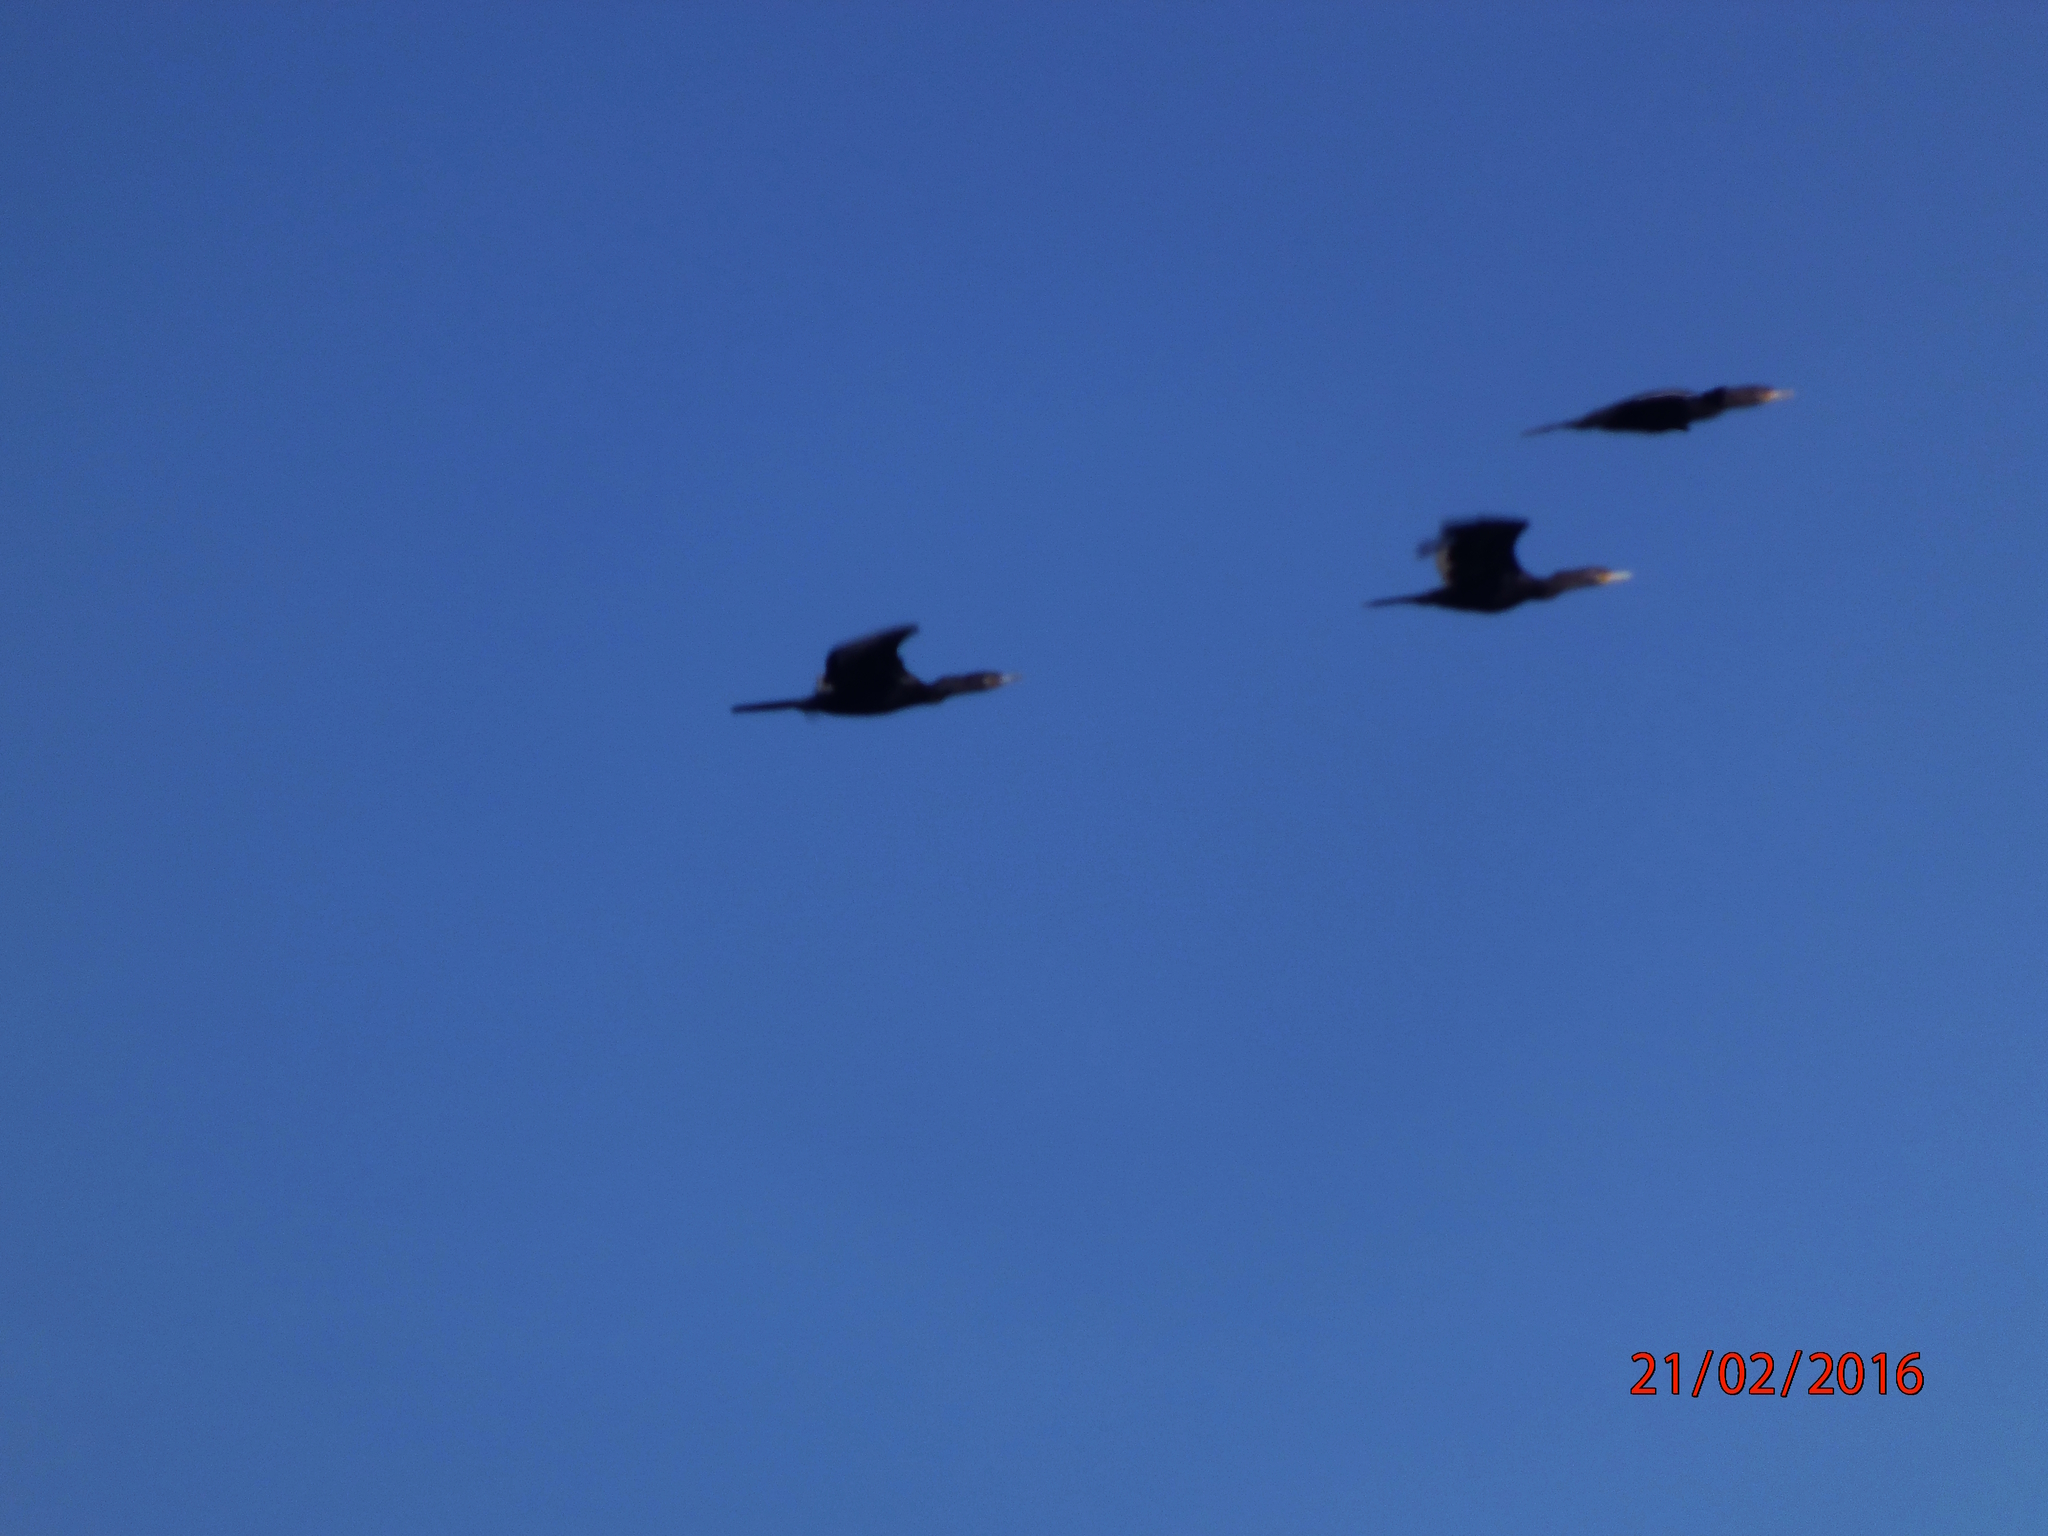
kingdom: Animalia
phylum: Chordata
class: Aves
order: Suliformes
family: Phalacrocoracidae
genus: Nannopterum
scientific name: Nannopterum
